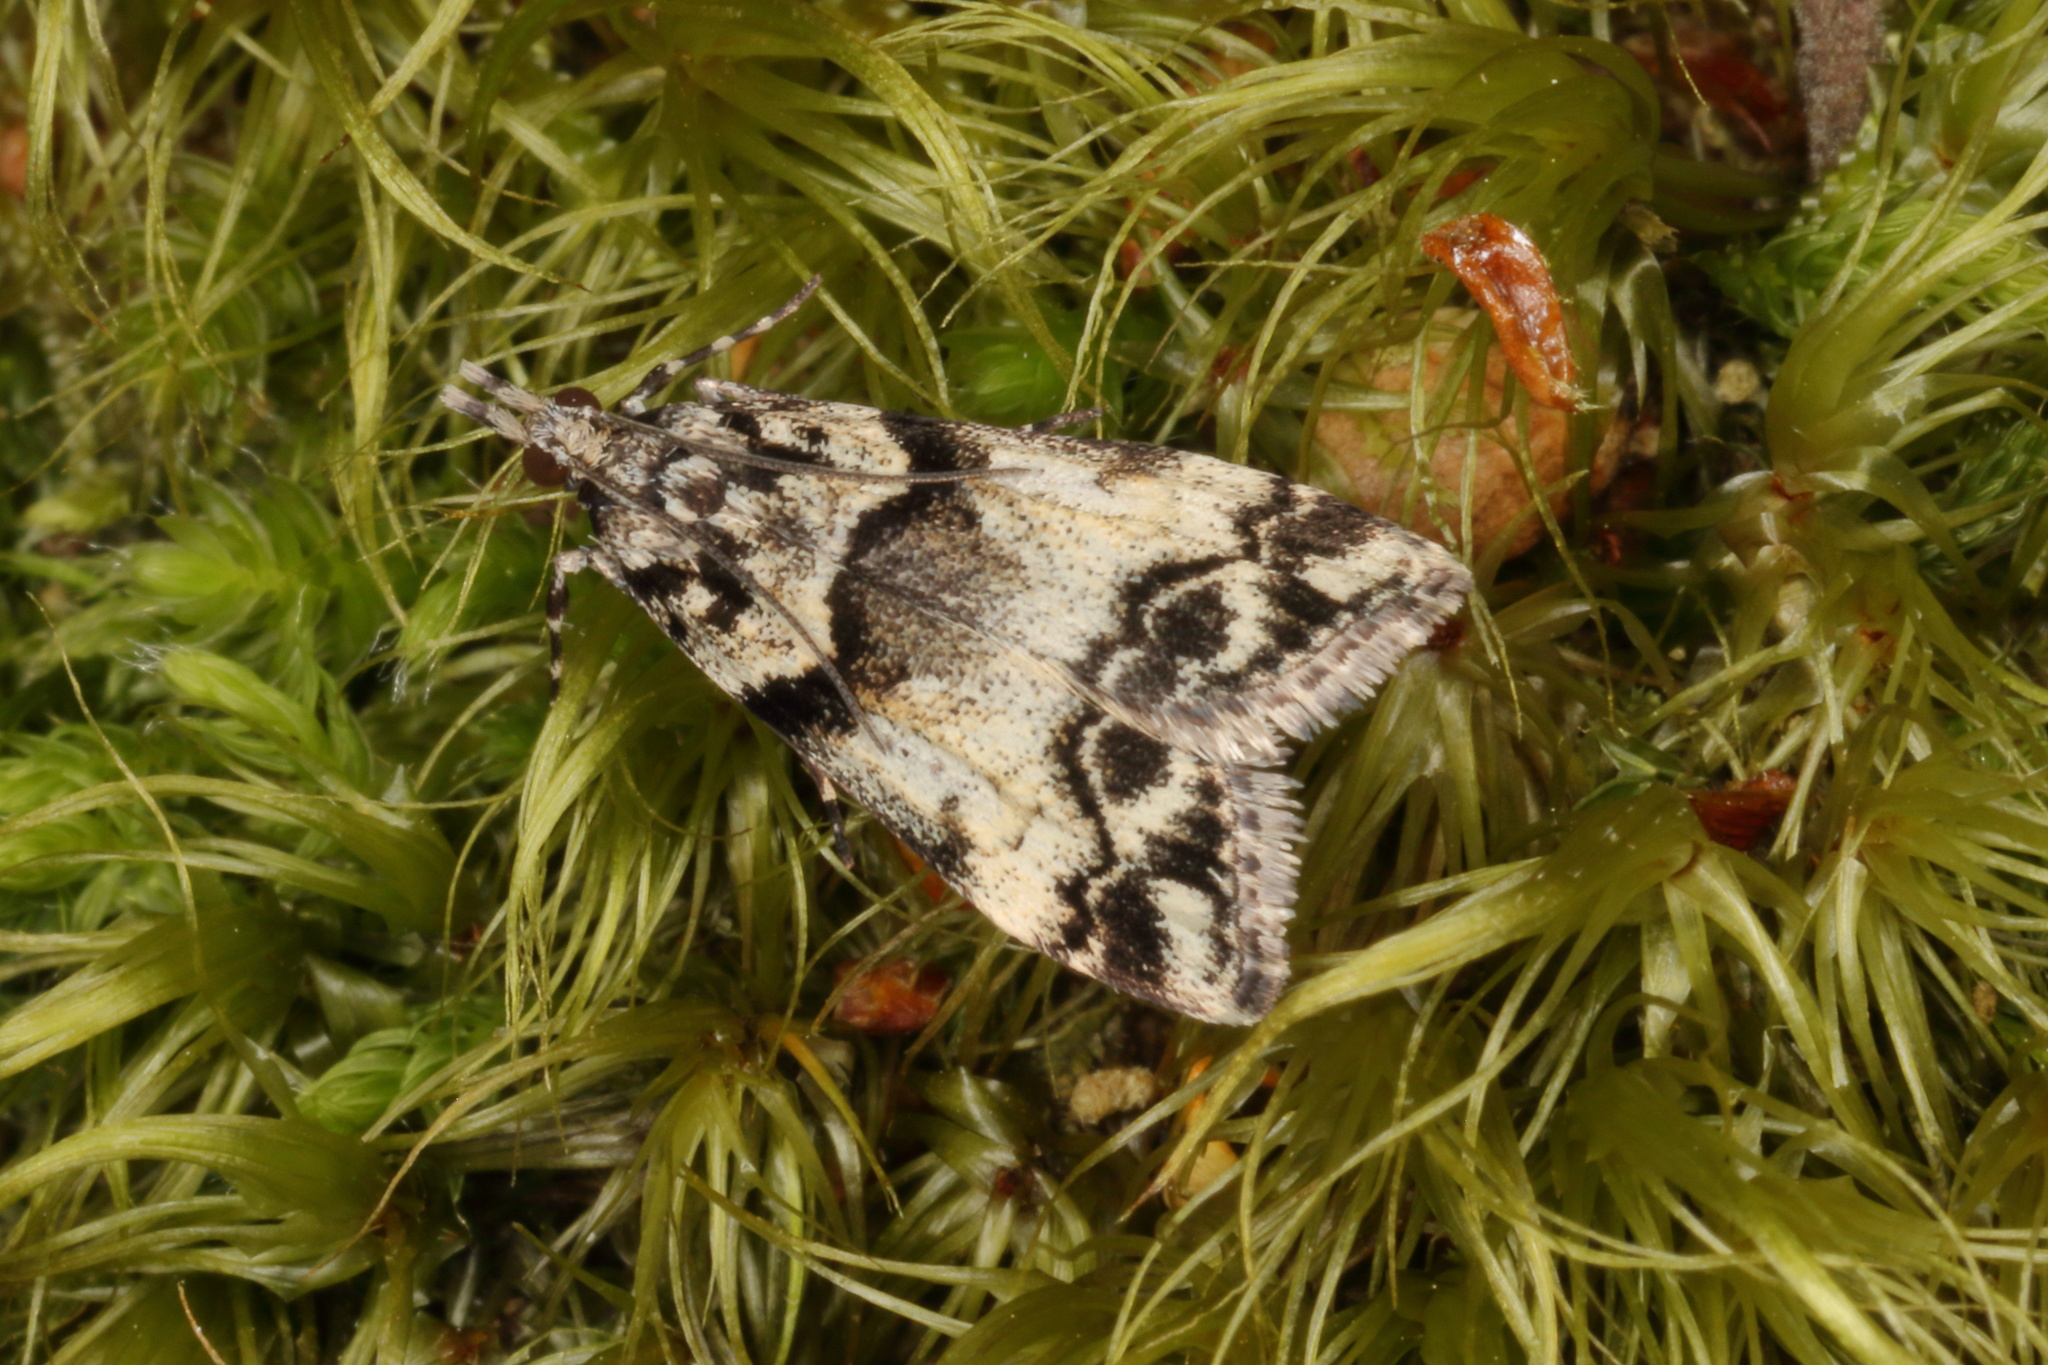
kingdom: Animalia
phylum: Arthropoda
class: Insecta
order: Lepidoptera
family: Crambidae
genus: Eudonia
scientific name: Eudonia torodes
